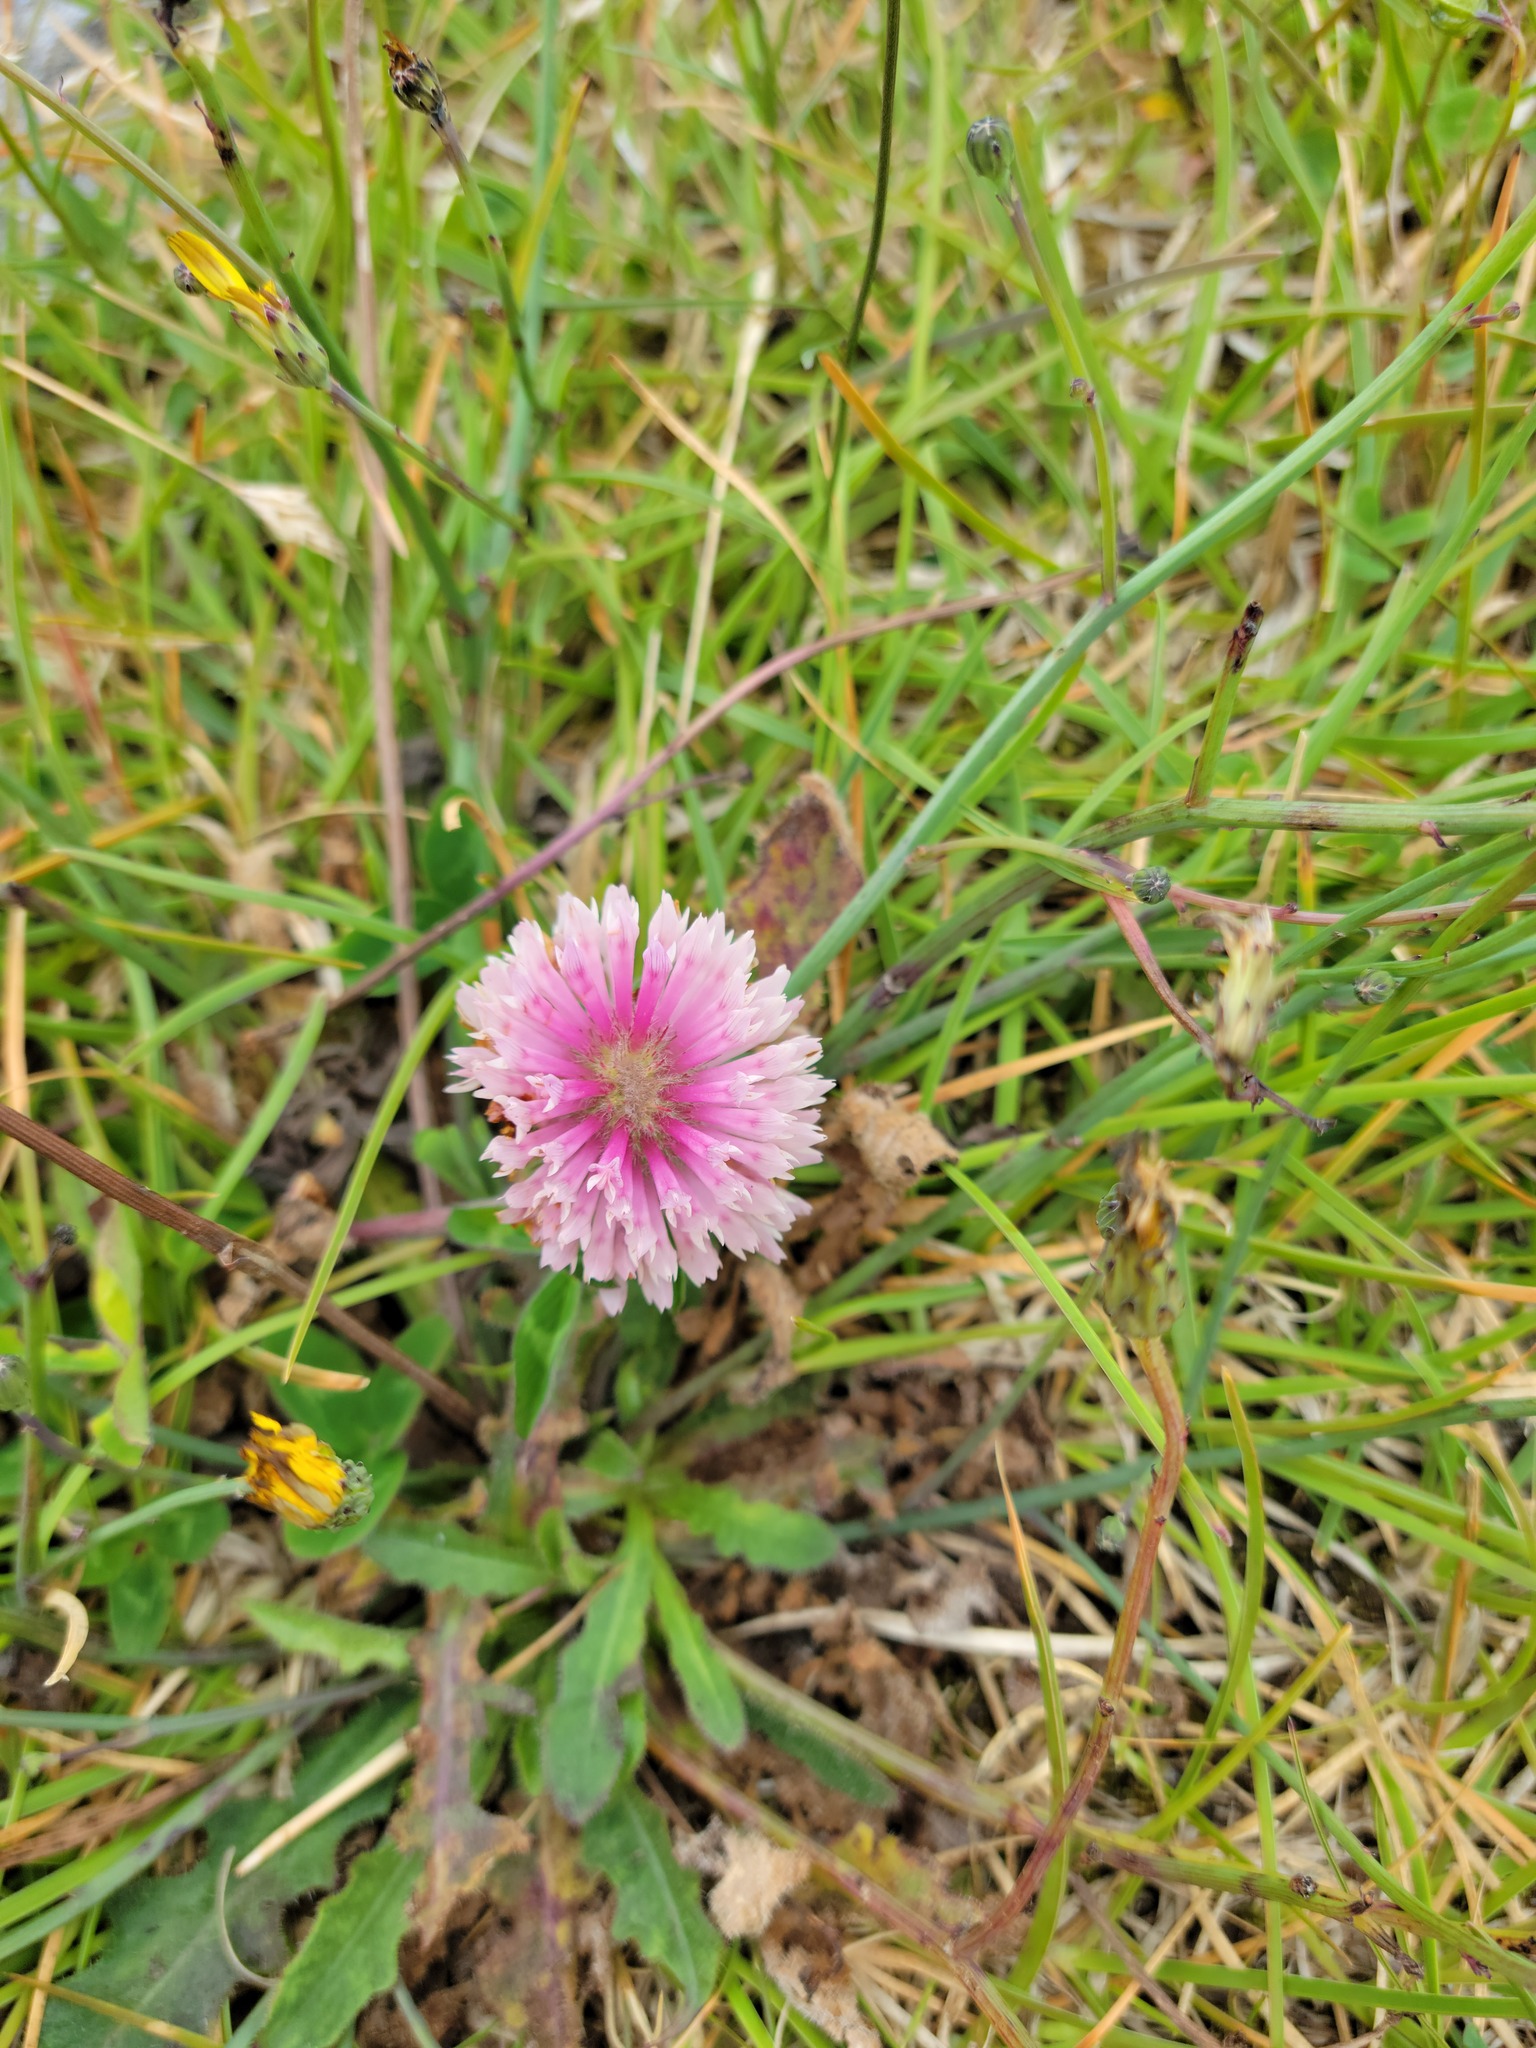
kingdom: Plantae
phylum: Tracheophyta
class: Magnoliopsida
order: Fabales
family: Fabaceae
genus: Trifolium
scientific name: Trifolium pratense
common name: Red clover
